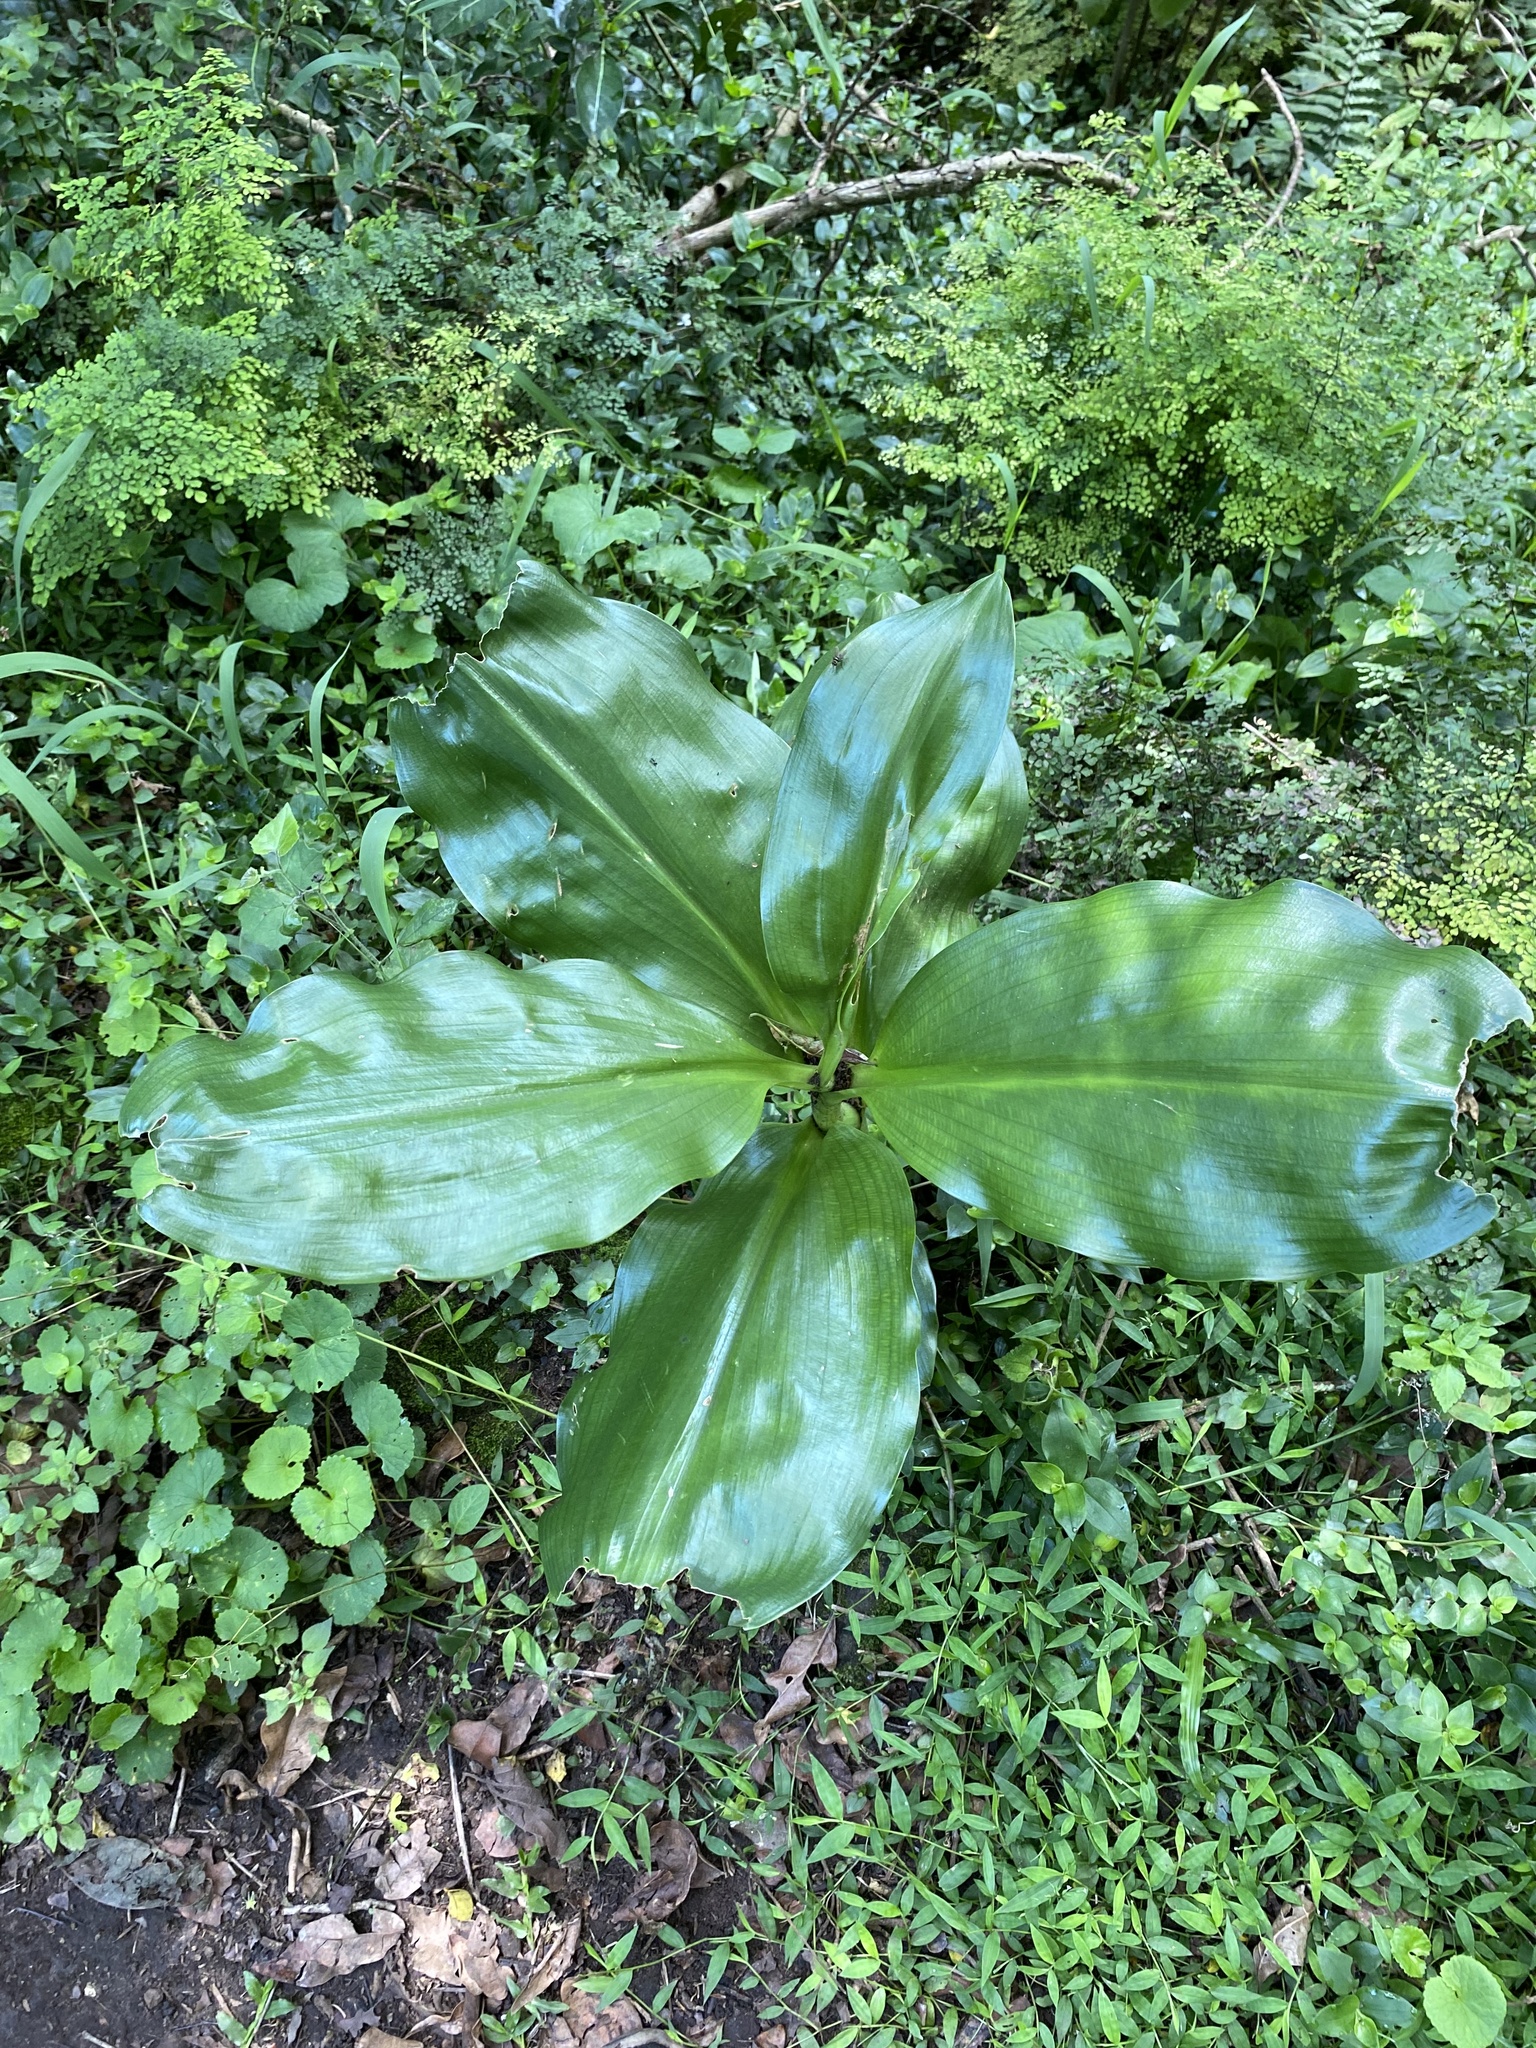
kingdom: Plantae
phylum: Tracheophyta
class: Liliopsida
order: Asparagales
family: Amaryllidaceae
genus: Scadoxus
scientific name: Scadoxus puniceus
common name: Royal-paintbrush
